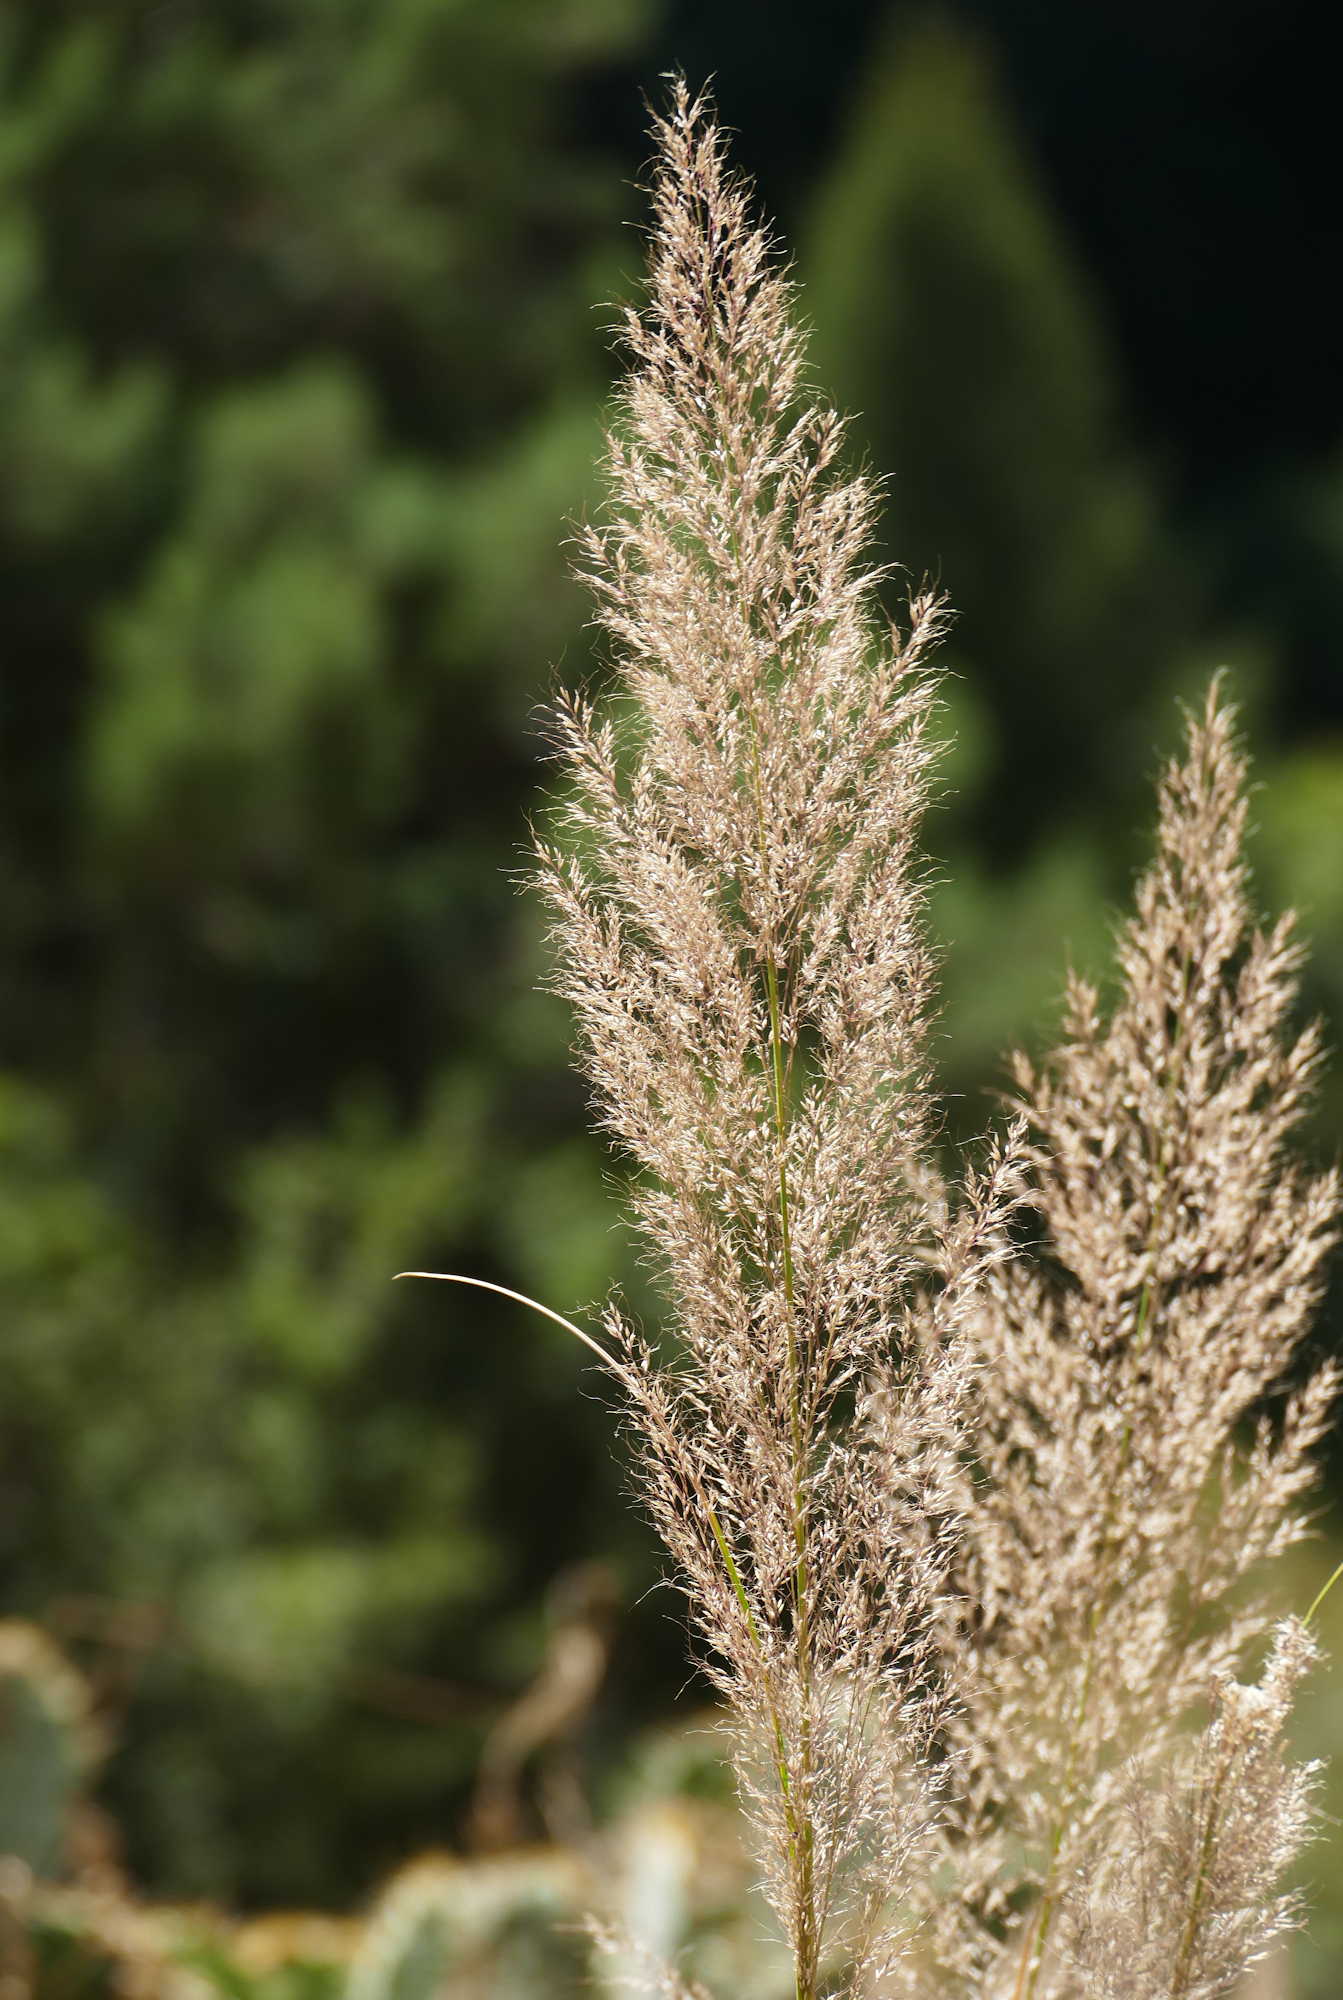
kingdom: Plantae
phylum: Tracheophyta
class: Liliopsida
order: Poales
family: Poaceae
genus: Muhlenbergia
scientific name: Muhlenbergia emersleyi
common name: Bull grass
